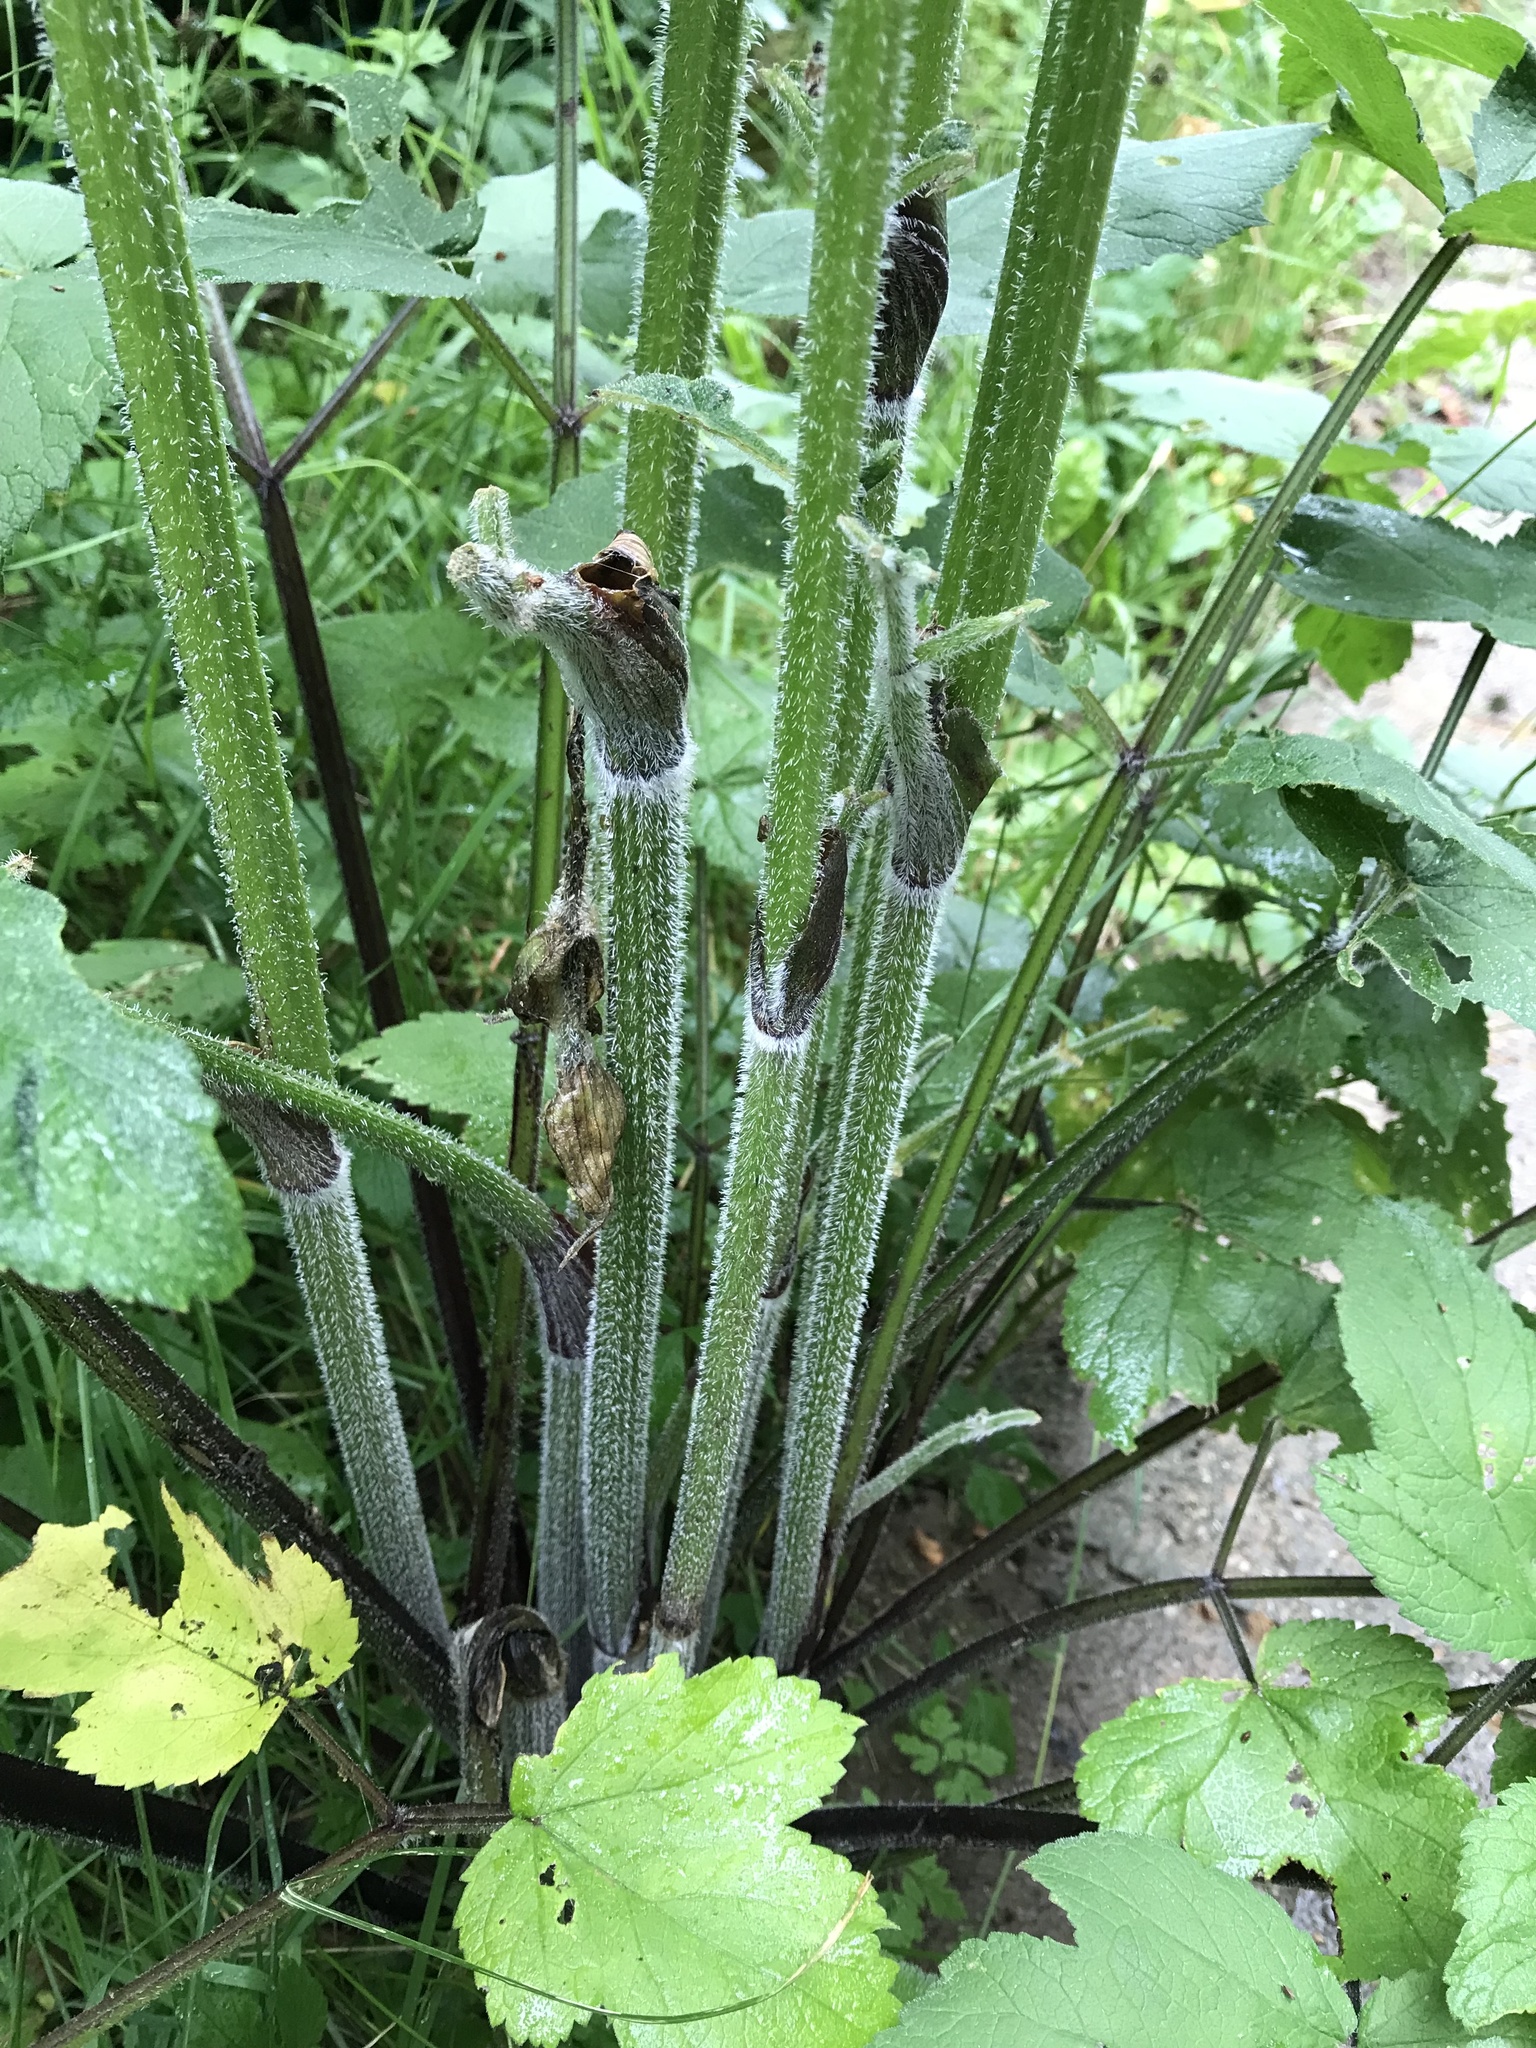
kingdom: Plantae
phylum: Tracheophyta
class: Magnoliopsida
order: Apiales
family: Apiaceae
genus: Heracleum
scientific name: Heracleum sphondylium
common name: Hogweed
